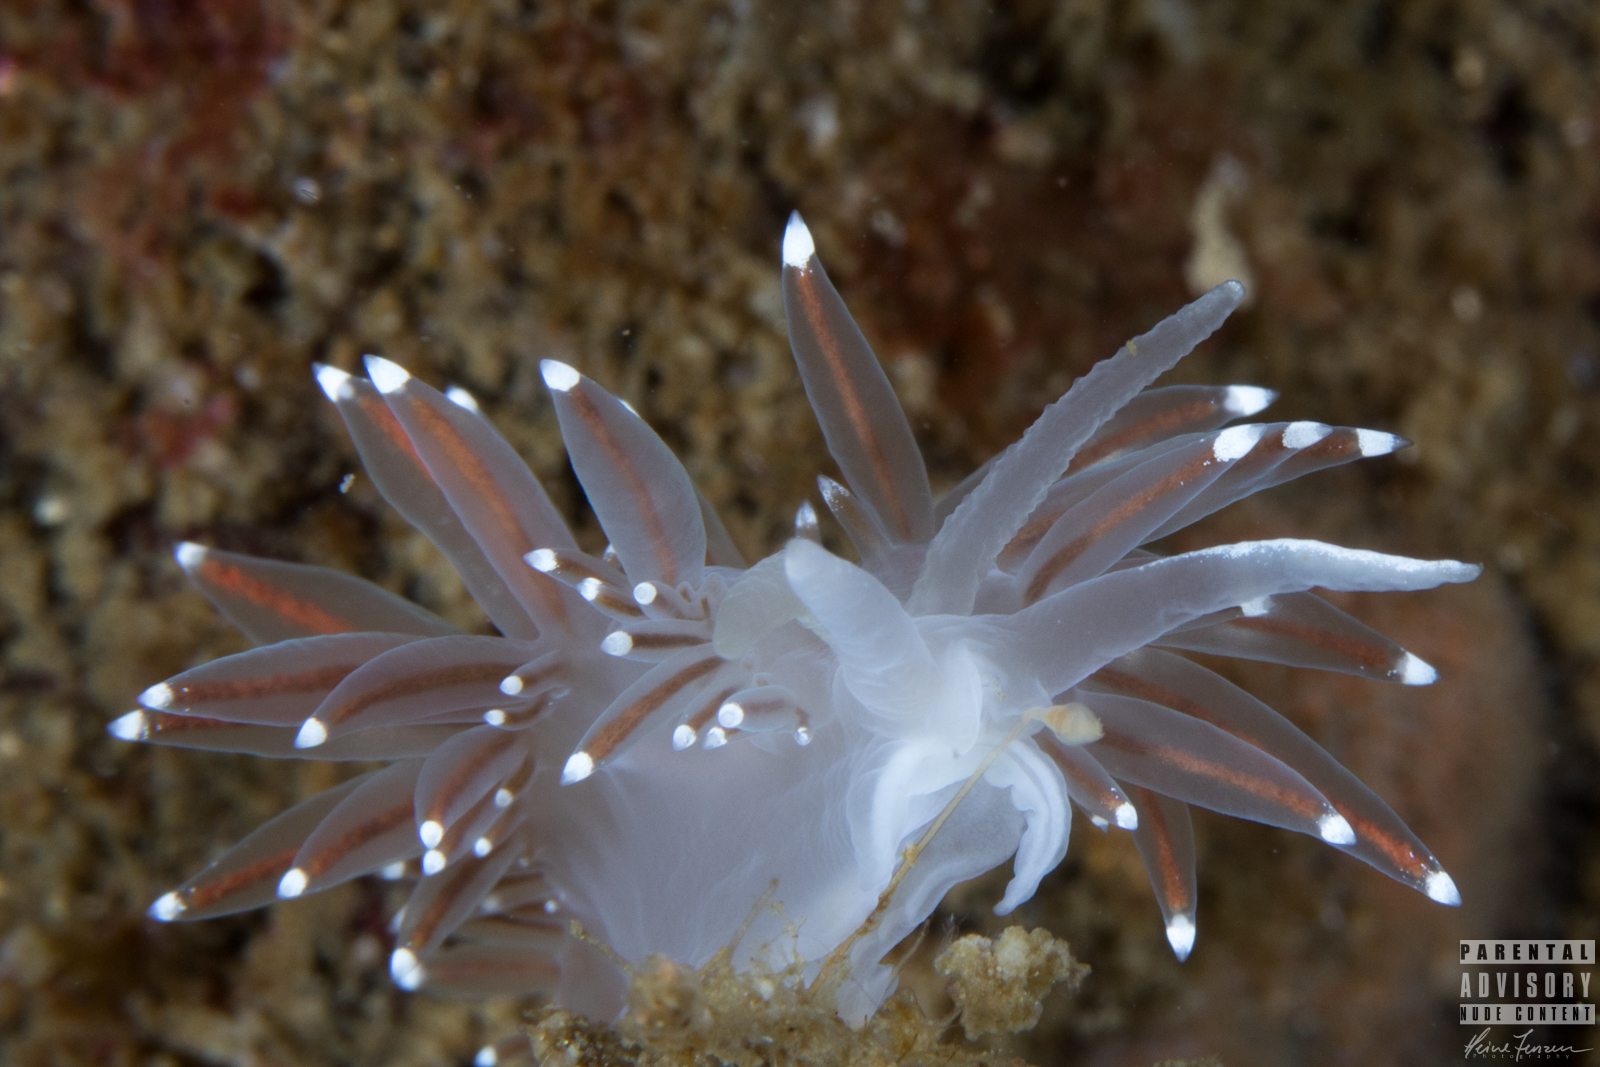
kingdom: Animalia
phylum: Mollusca
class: Gastropoda
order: Nudibranchia
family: Coryphellidae
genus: Coryphella
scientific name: Coryphella browni
